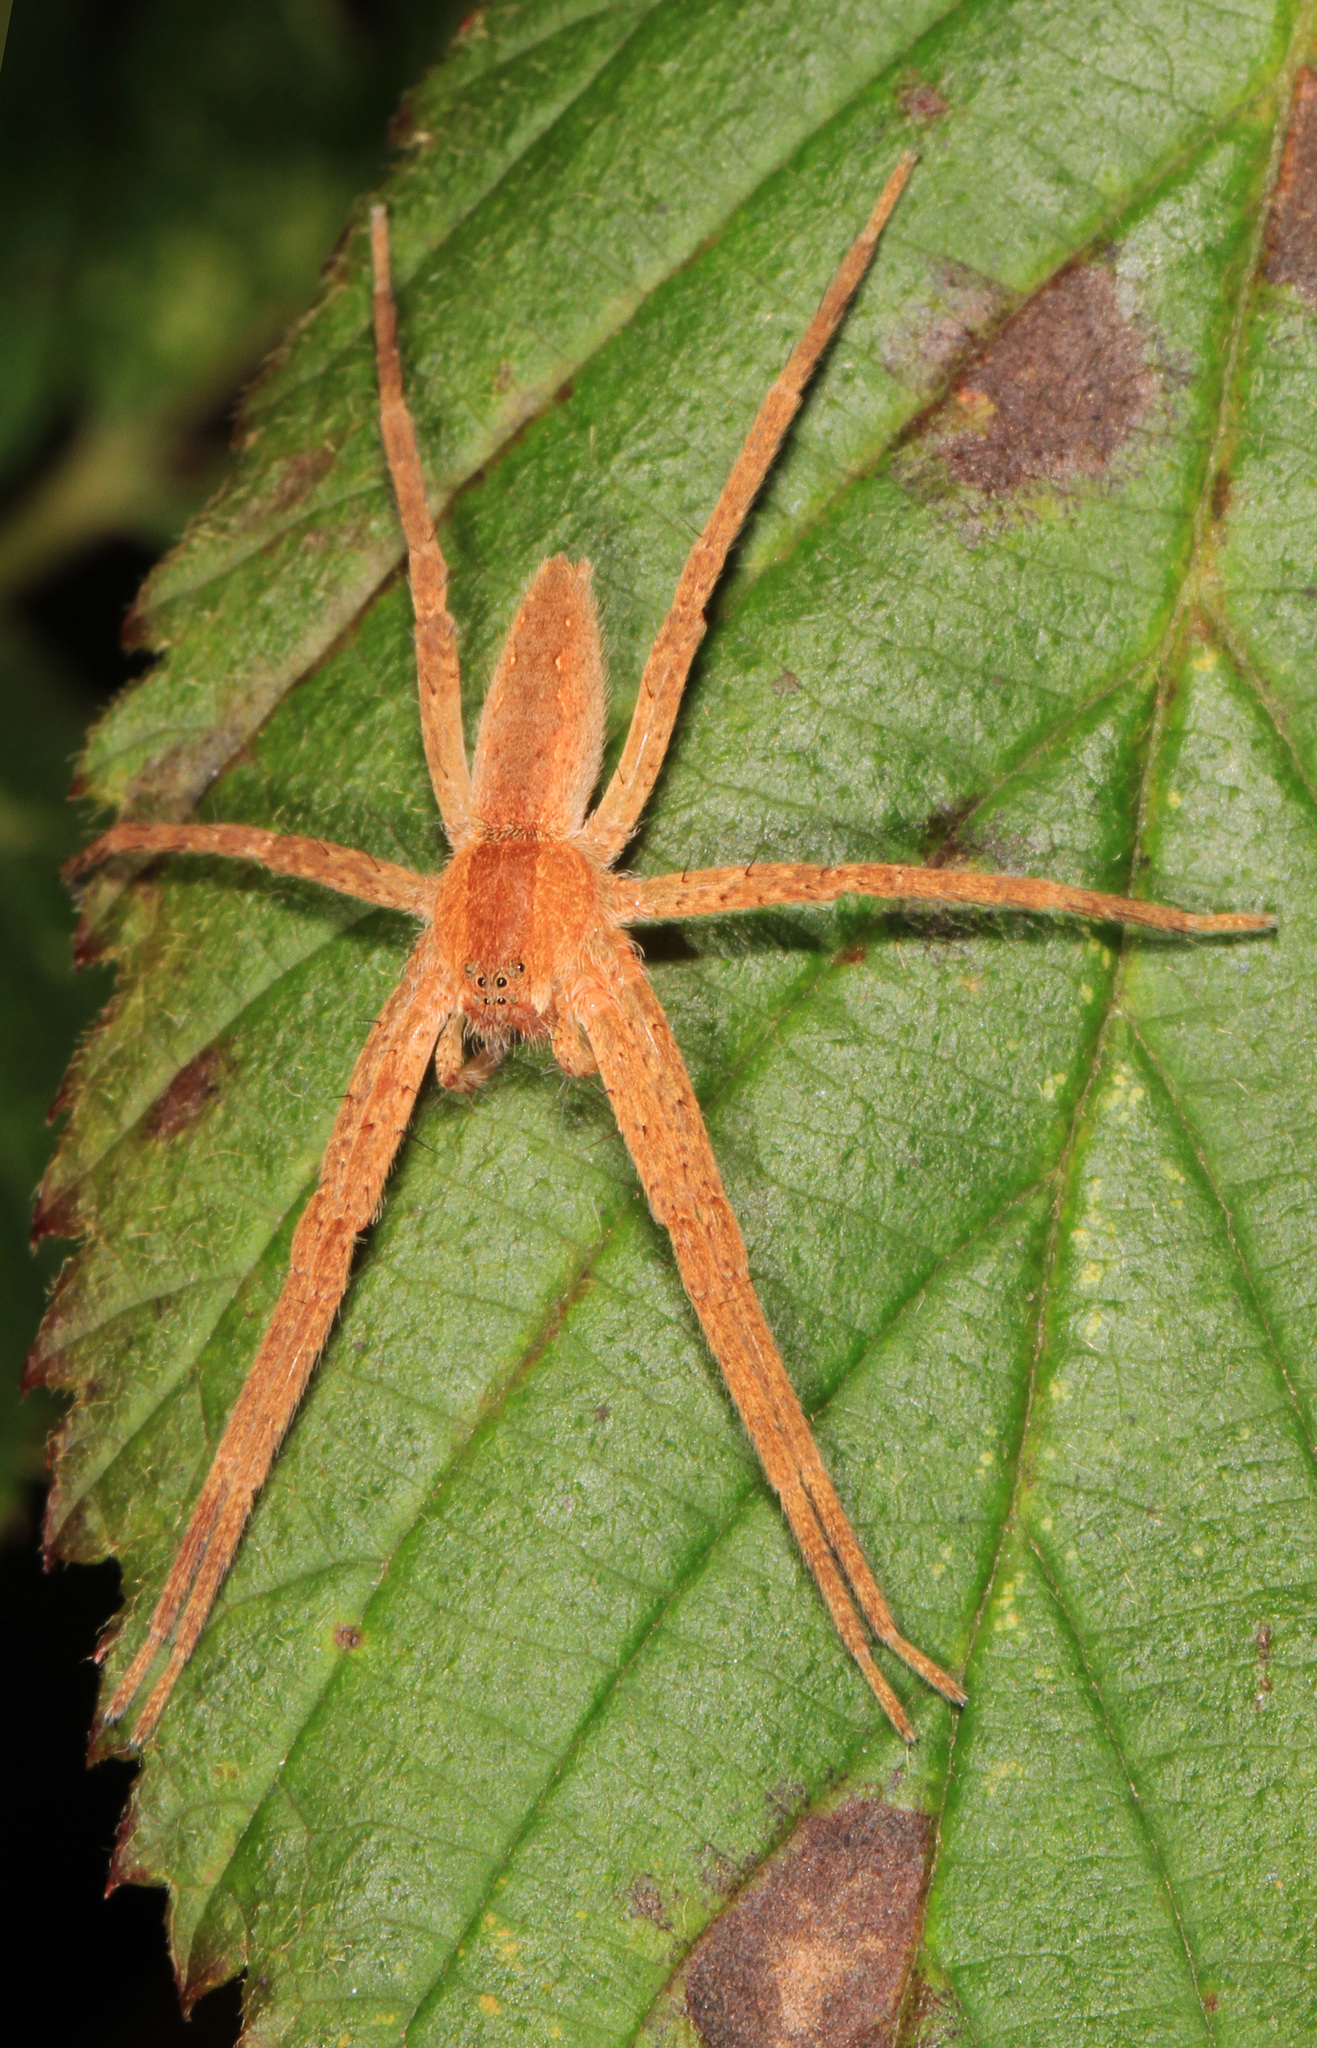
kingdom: Animalia
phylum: Arthropoda
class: Arachnida
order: Araneae
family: Pisauridae
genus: Pisaurina
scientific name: Pisaurina mira
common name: American nursery web spider
